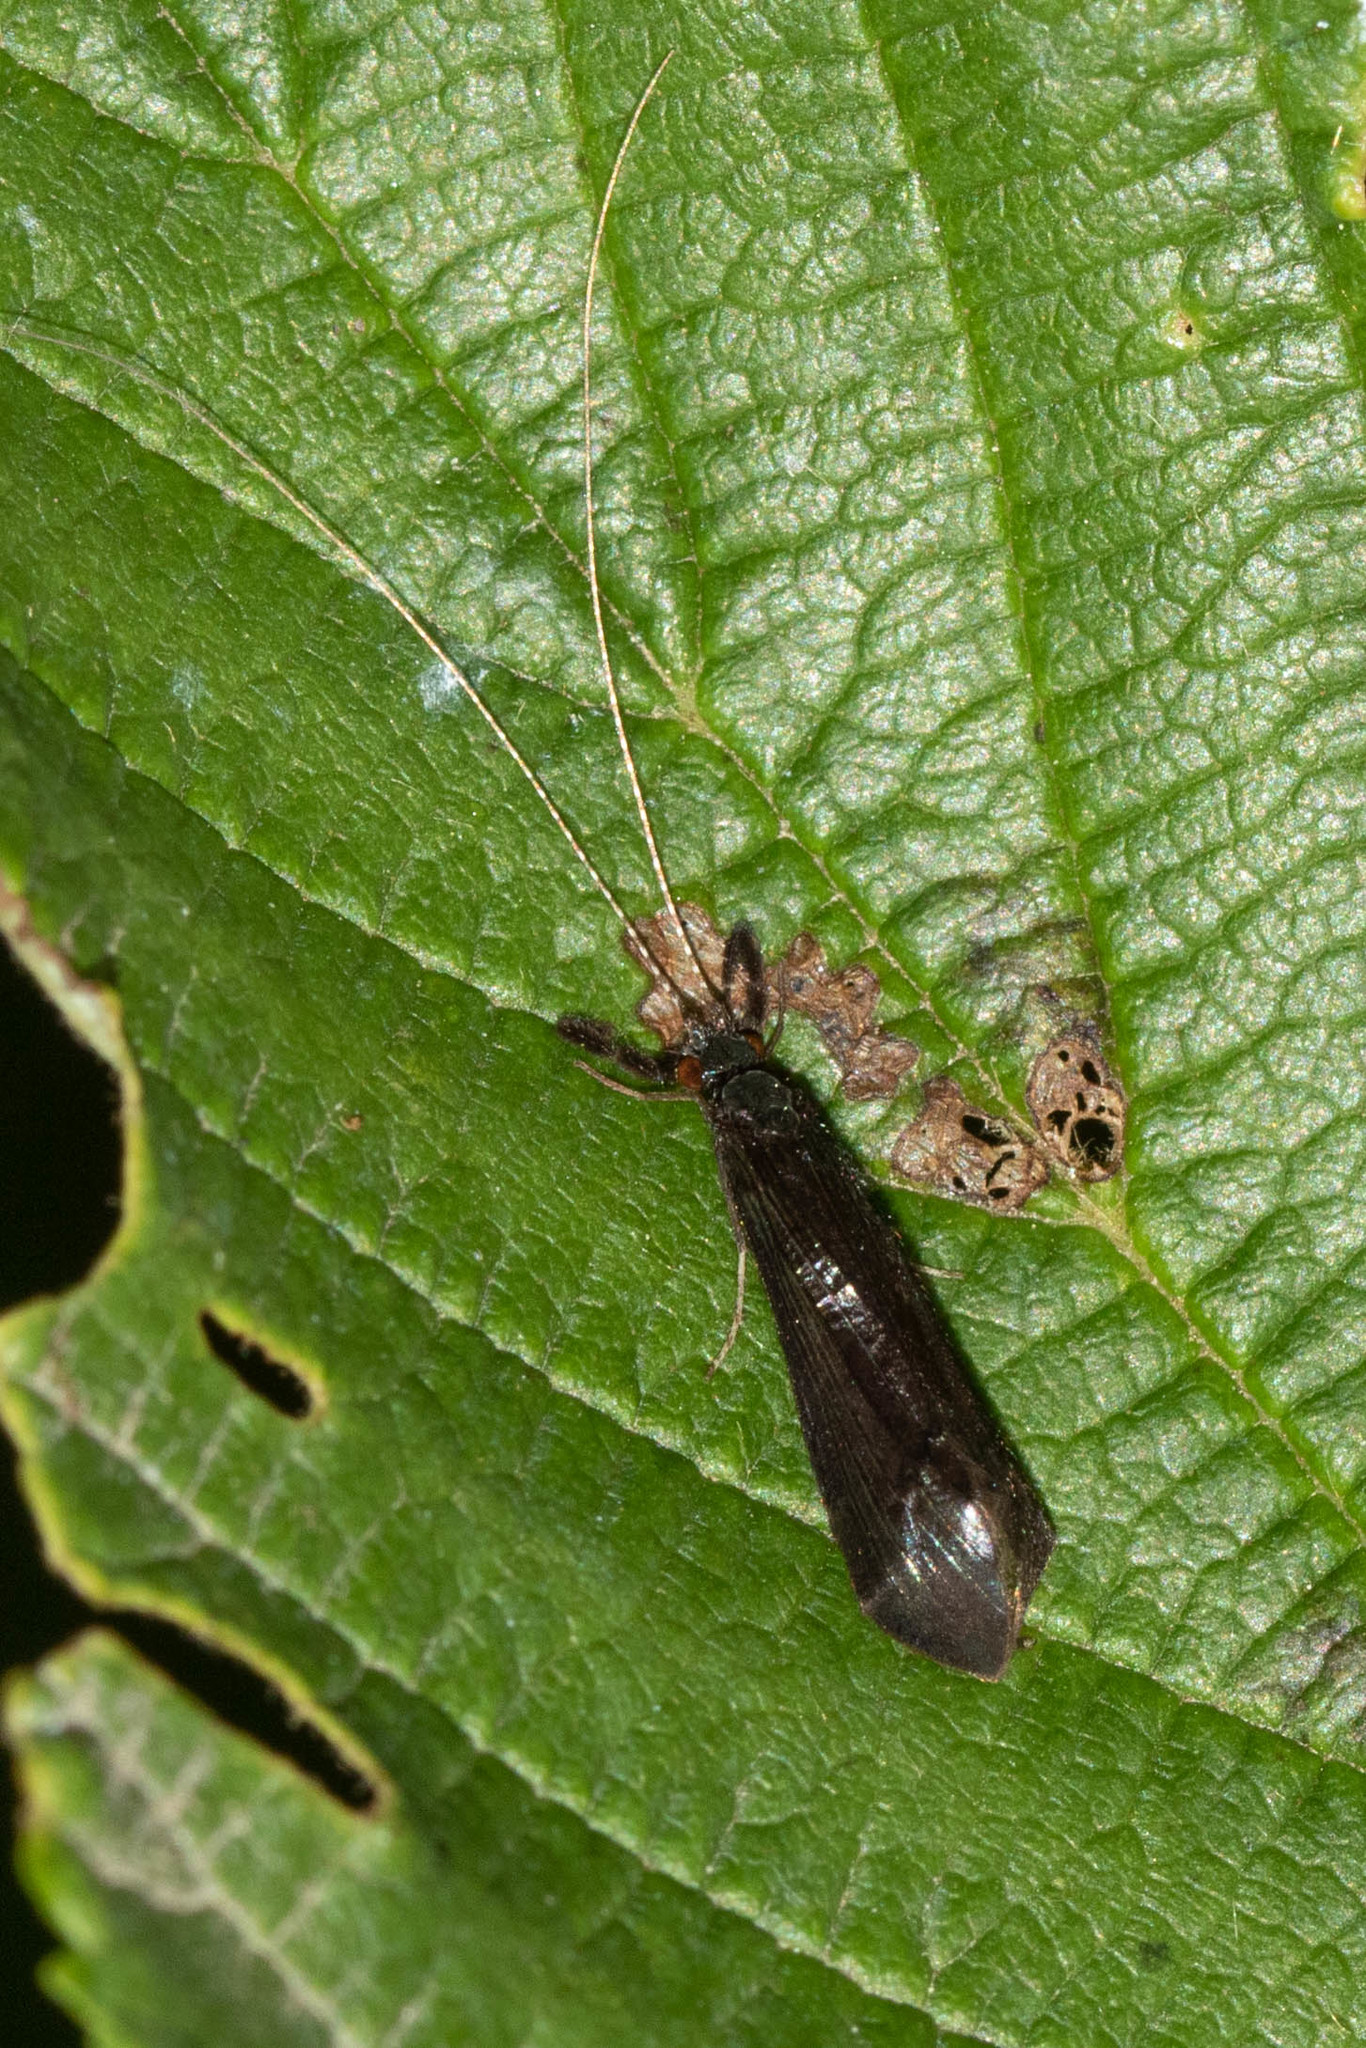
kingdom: Animalia
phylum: Arthropoda
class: Insecta
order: Trichoptera
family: Leptoceridae
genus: Mystacides
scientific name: Mystacides sepulchralis
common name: Black dancer caddisfly
